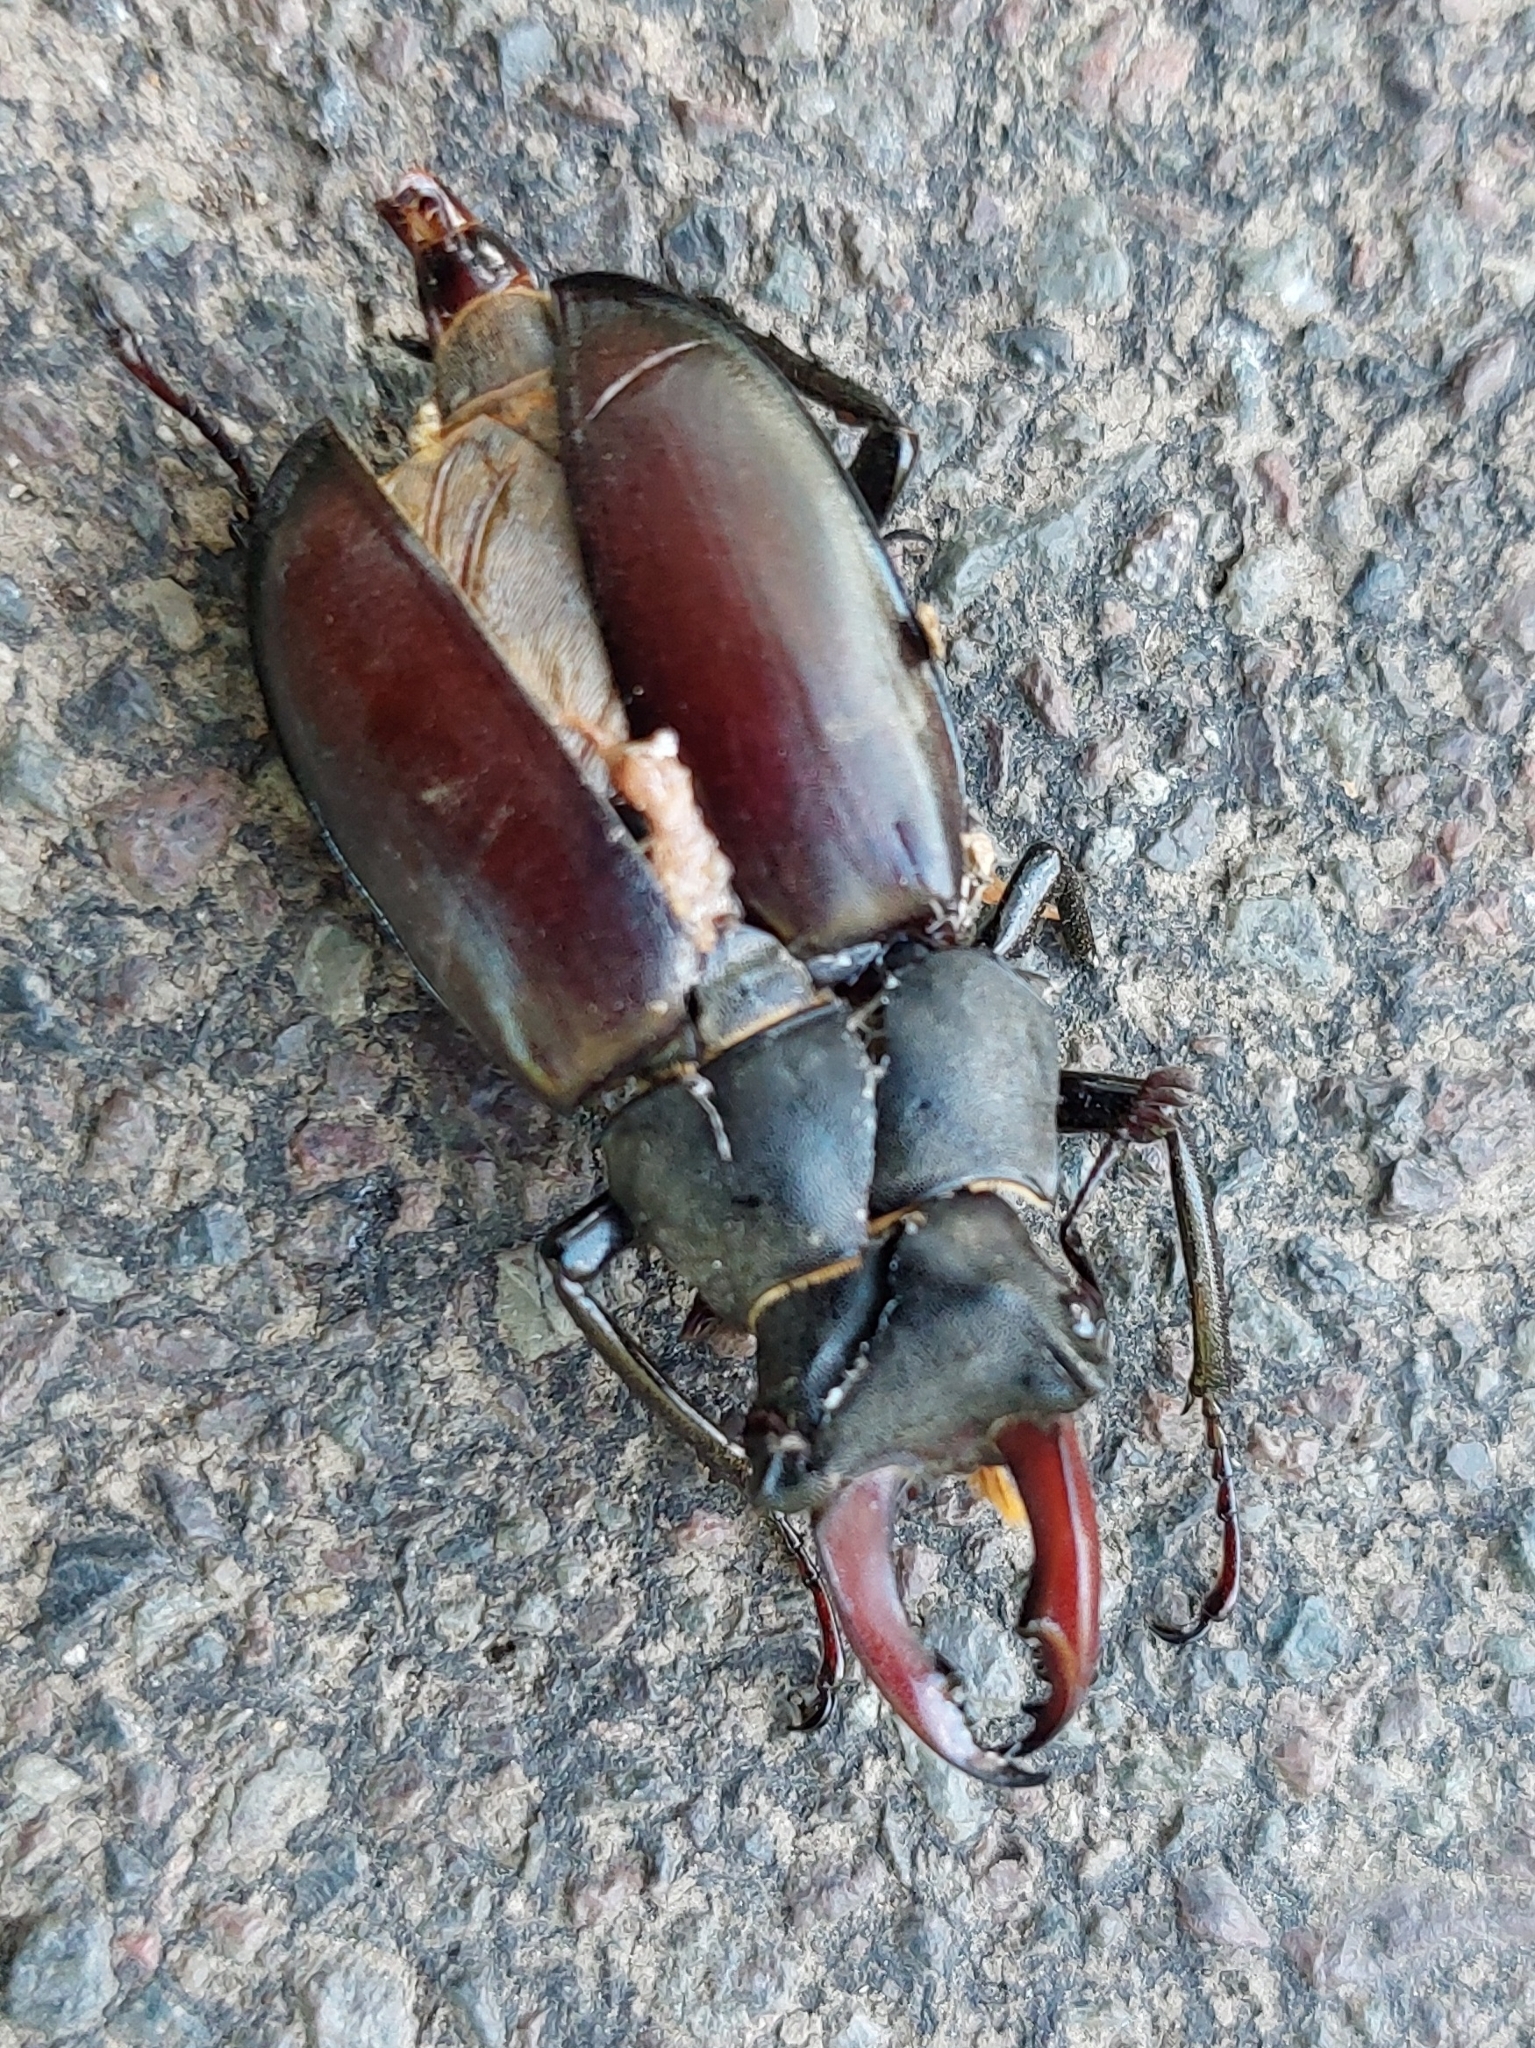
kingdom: Animalia
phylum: Arthropoda
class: Insecta
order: Coleoptera
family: Lucanidae
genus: Lucanus
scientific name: Lucanus cervus
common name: Stag beetle
